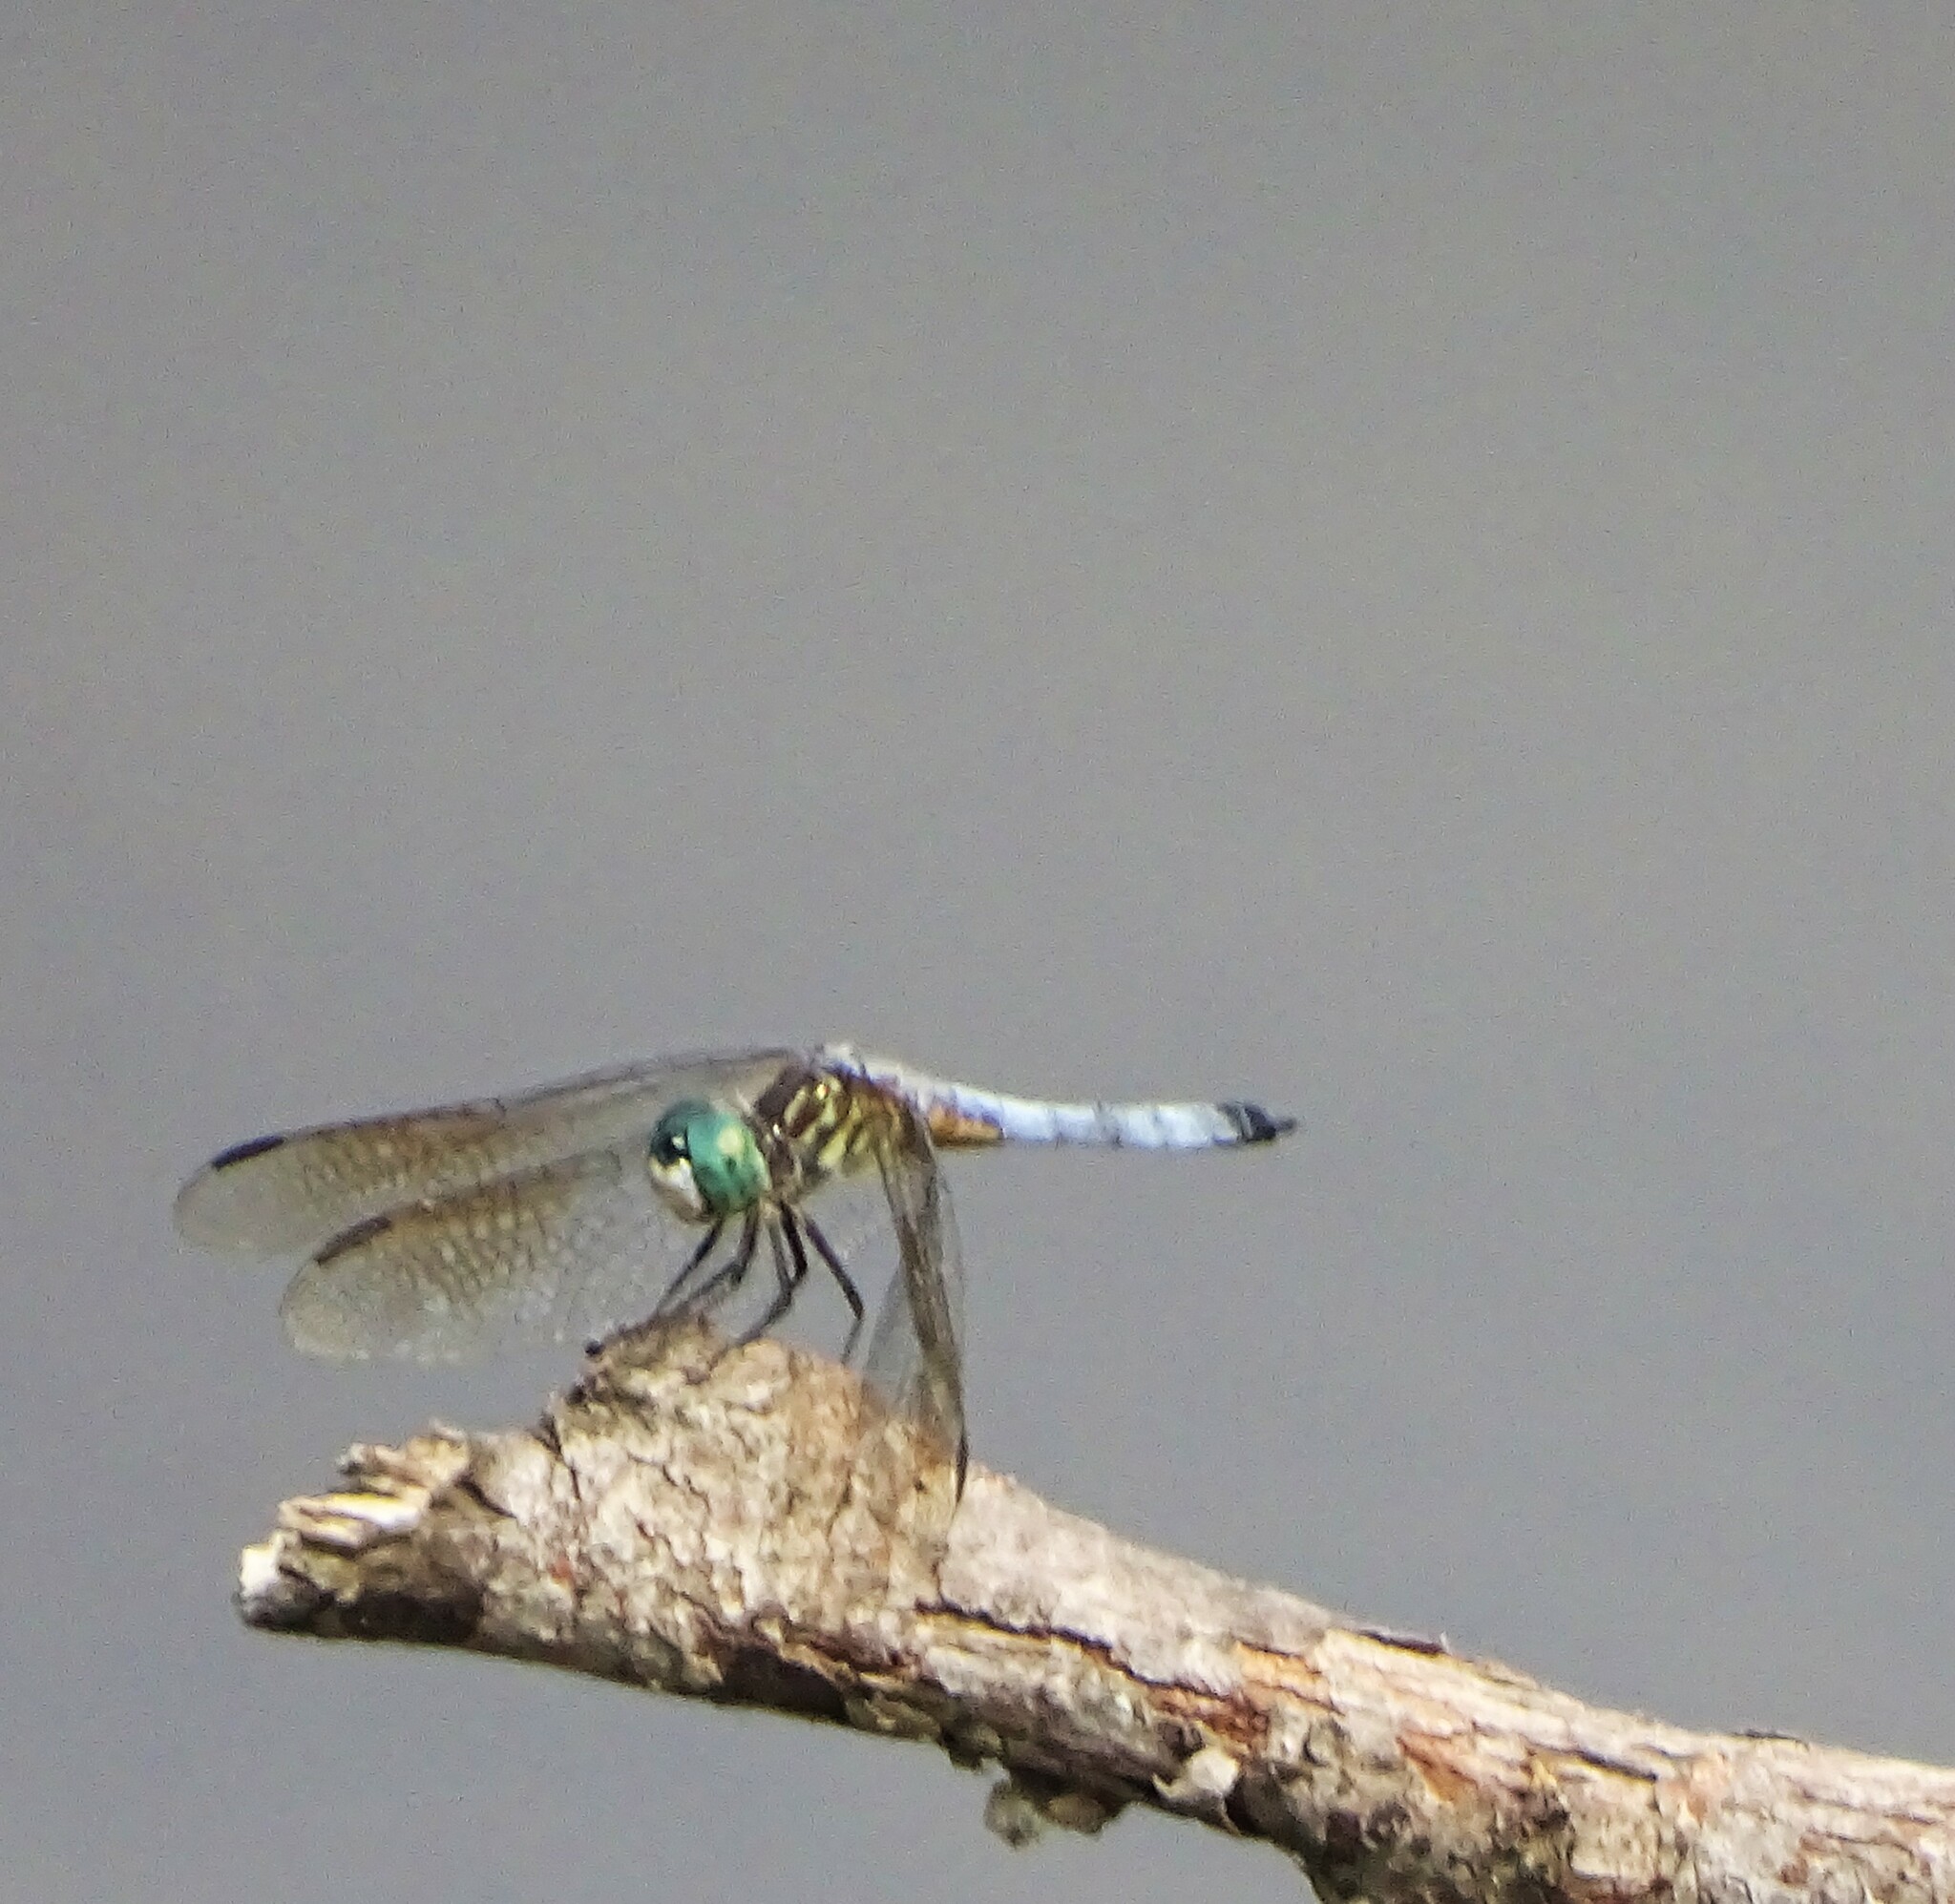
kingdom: Animalia
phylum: Arthropoda
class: Insecta
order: Odonata
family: Libellulidae
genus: Pachydiplax
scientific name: Pachydiplax longipennis
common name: Blue dasher
